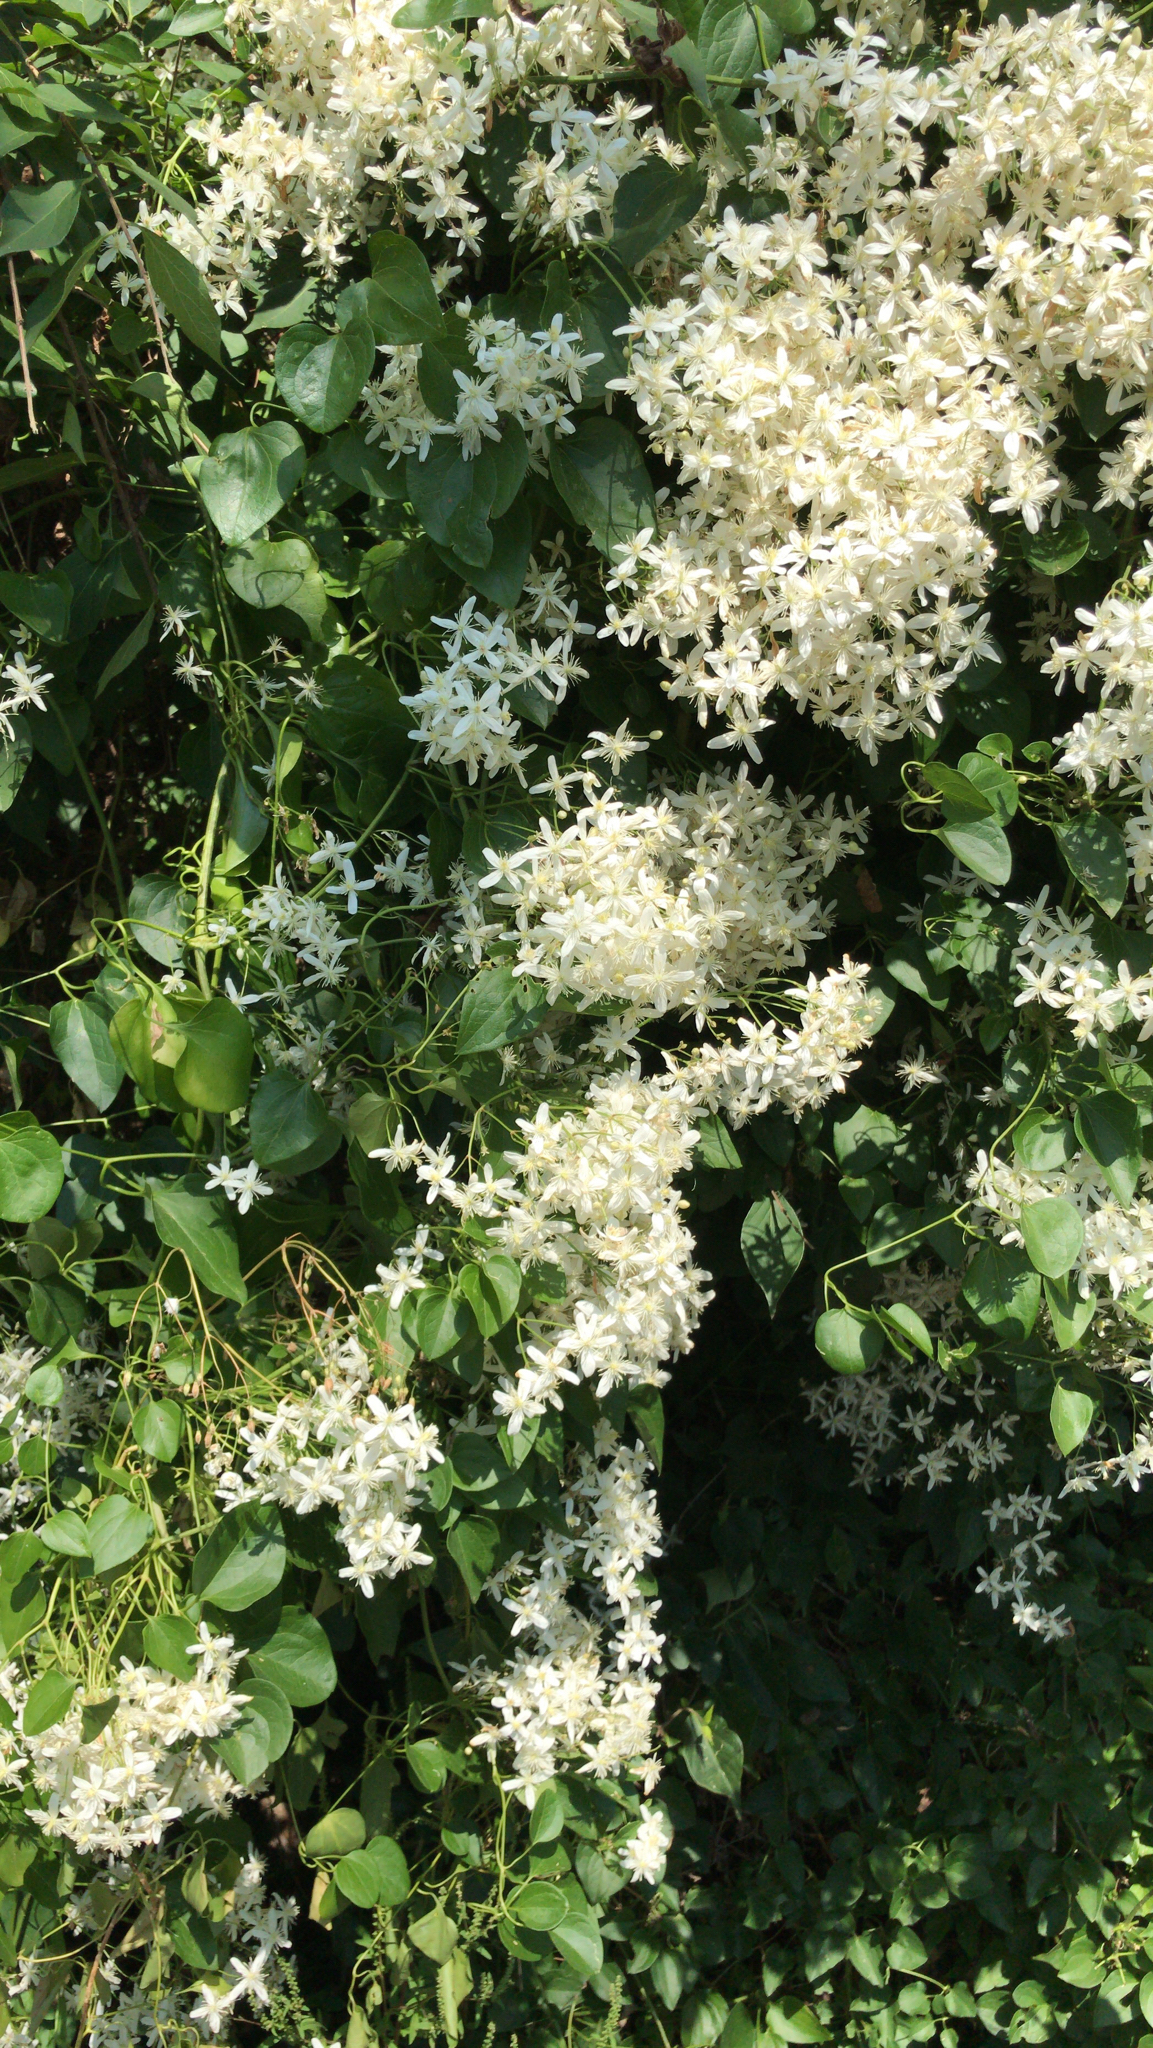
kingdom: Plantae
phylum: Tracheophyta
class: Magnoliopsida
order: Ranunculales
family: Ranunculaceae
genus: Clematis
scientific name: Clematis terniflora
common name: Sweet autumn clematis
